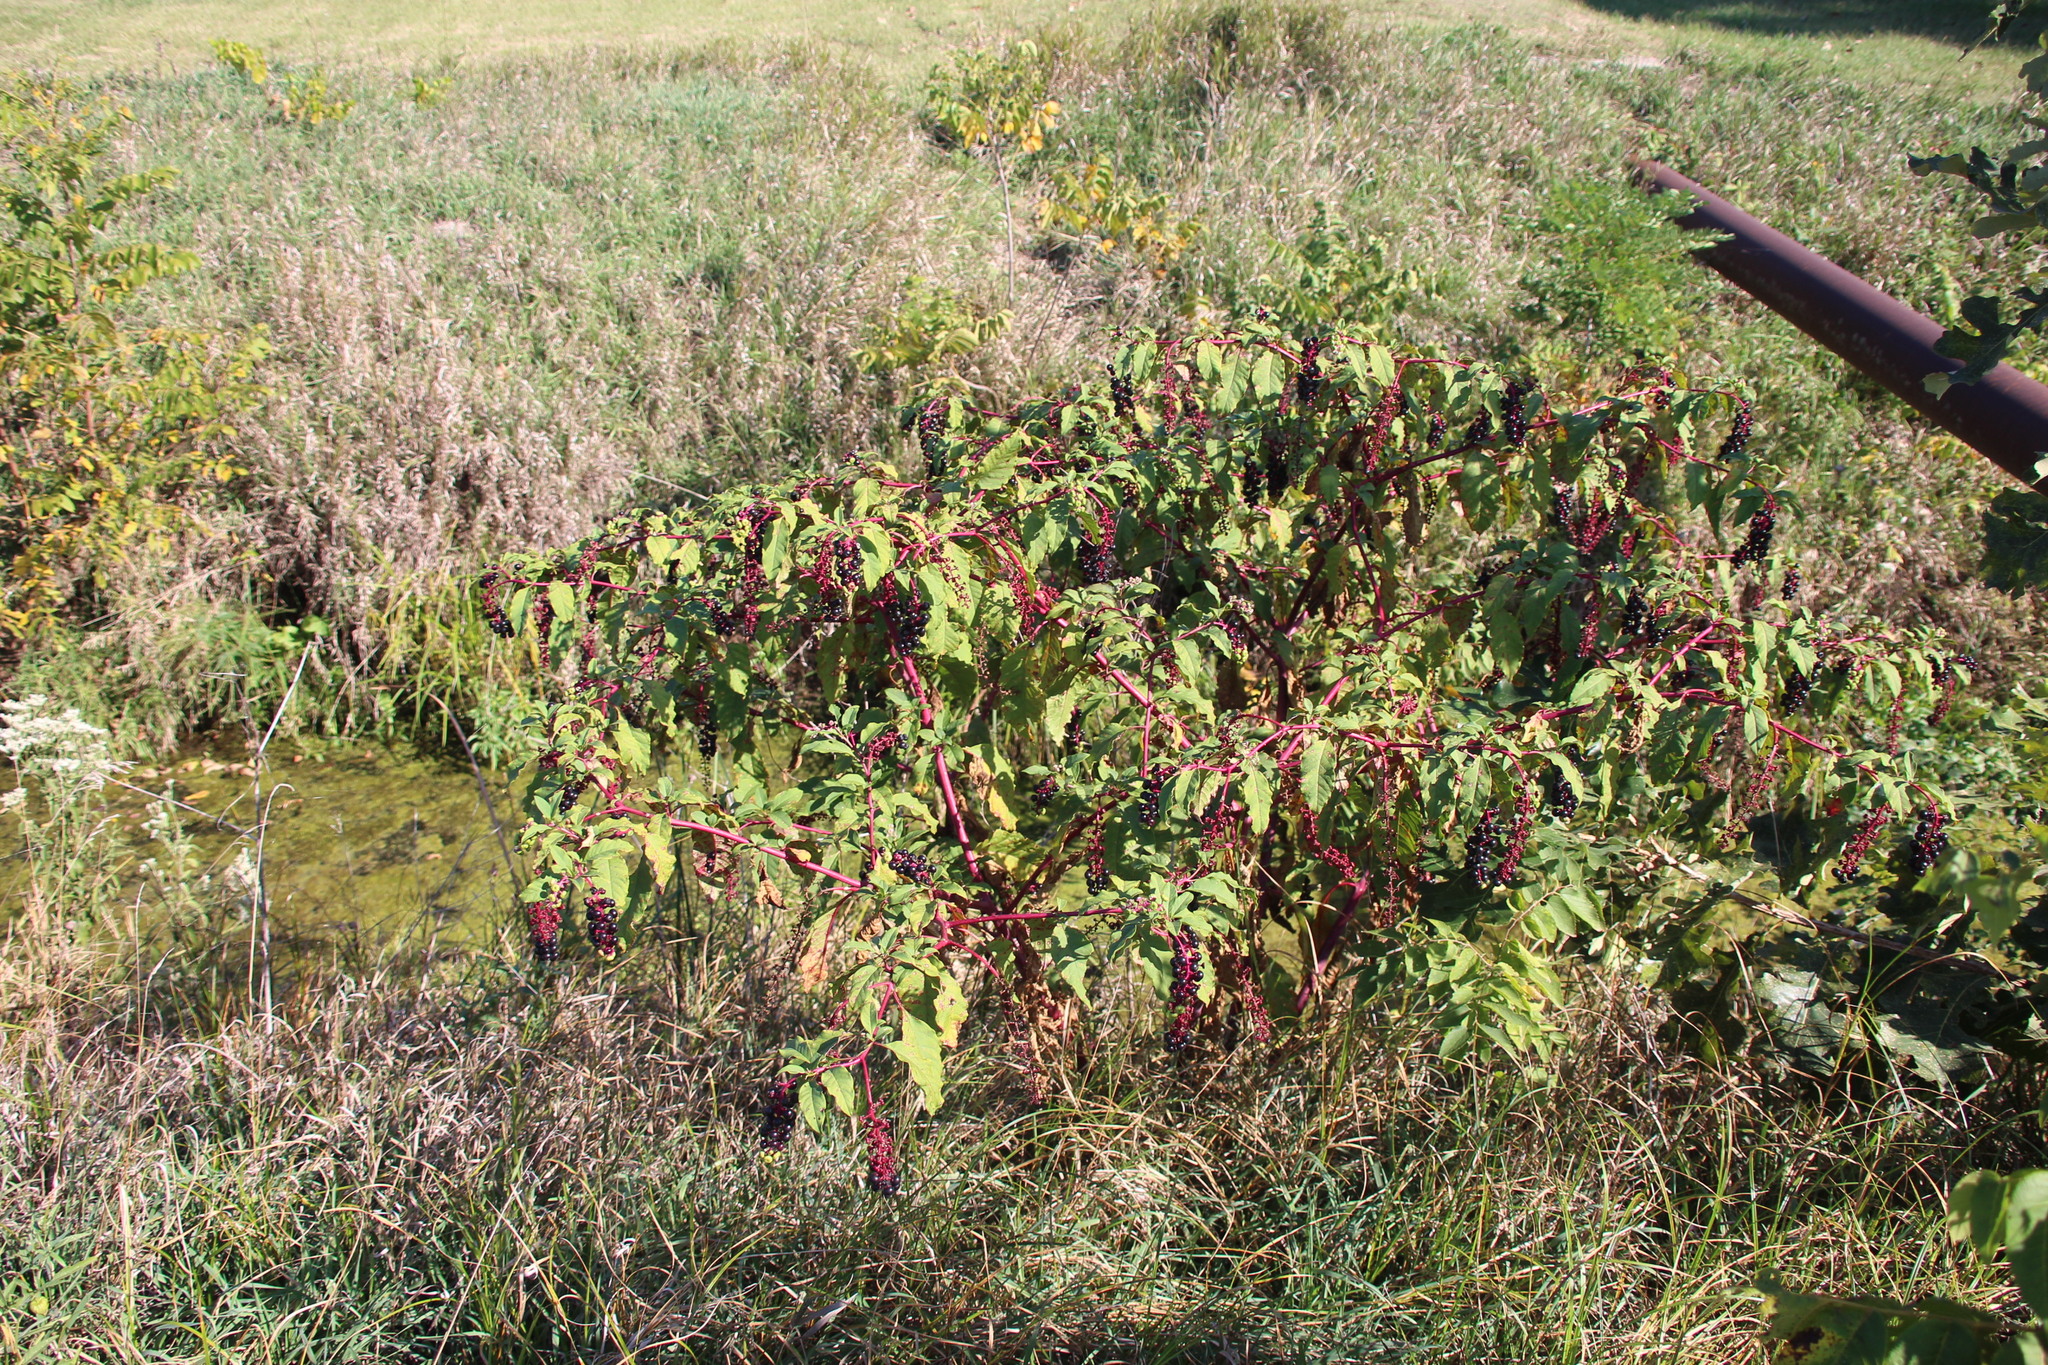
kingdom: Plantae
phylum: Tracheophyta
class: Magnoliopsida
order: Caryophyllales
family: Phytolaccaceae
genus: Phytolacca
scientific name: Phytolacca americana
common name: American pokeweed
